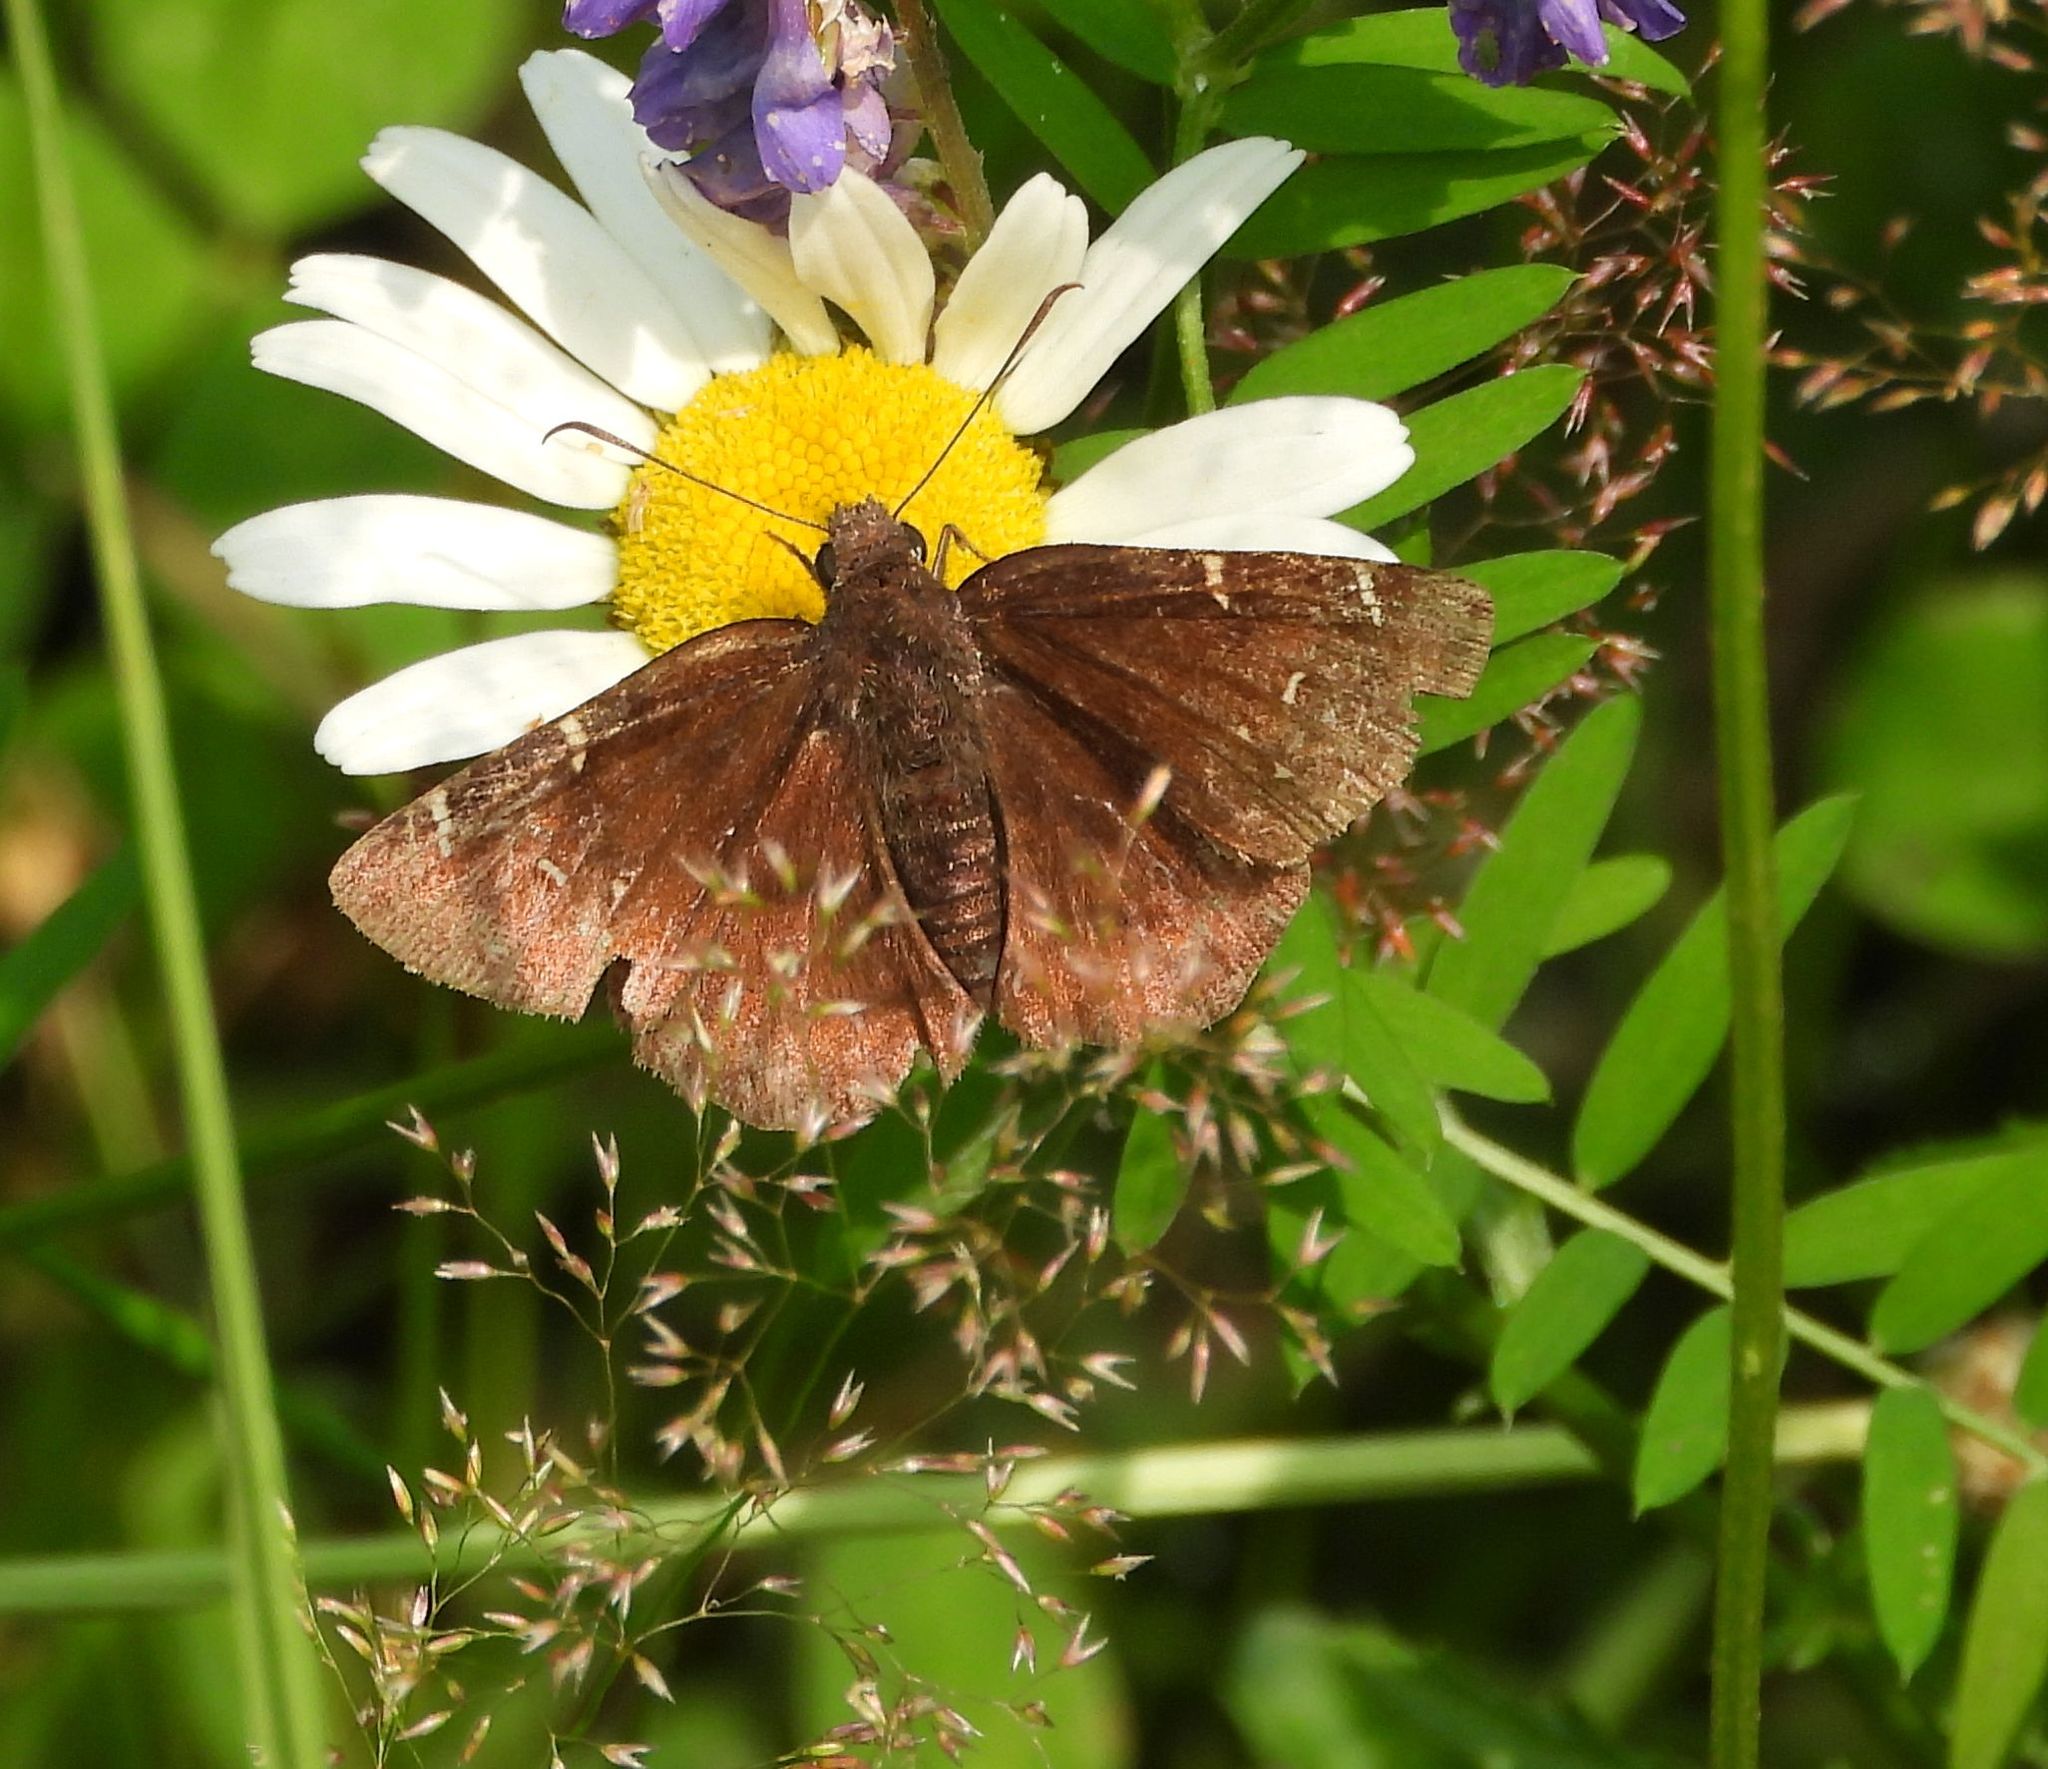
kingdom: Animalia
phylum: Arthropoda
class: Insecta
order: Lepidoptera
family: Hesperiidae
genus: Thorybes
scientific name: Thorybes pylades
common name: Northern cloudywing
